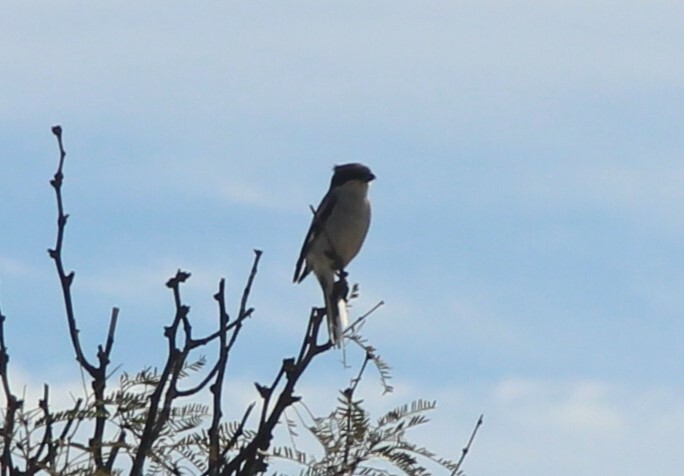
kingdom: Animalia
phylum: Chordata
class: Aves
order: Passeriformes
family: Laniidae
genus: Lanius
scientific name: Lanius ludovicianus
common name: Loggerhead shrike
